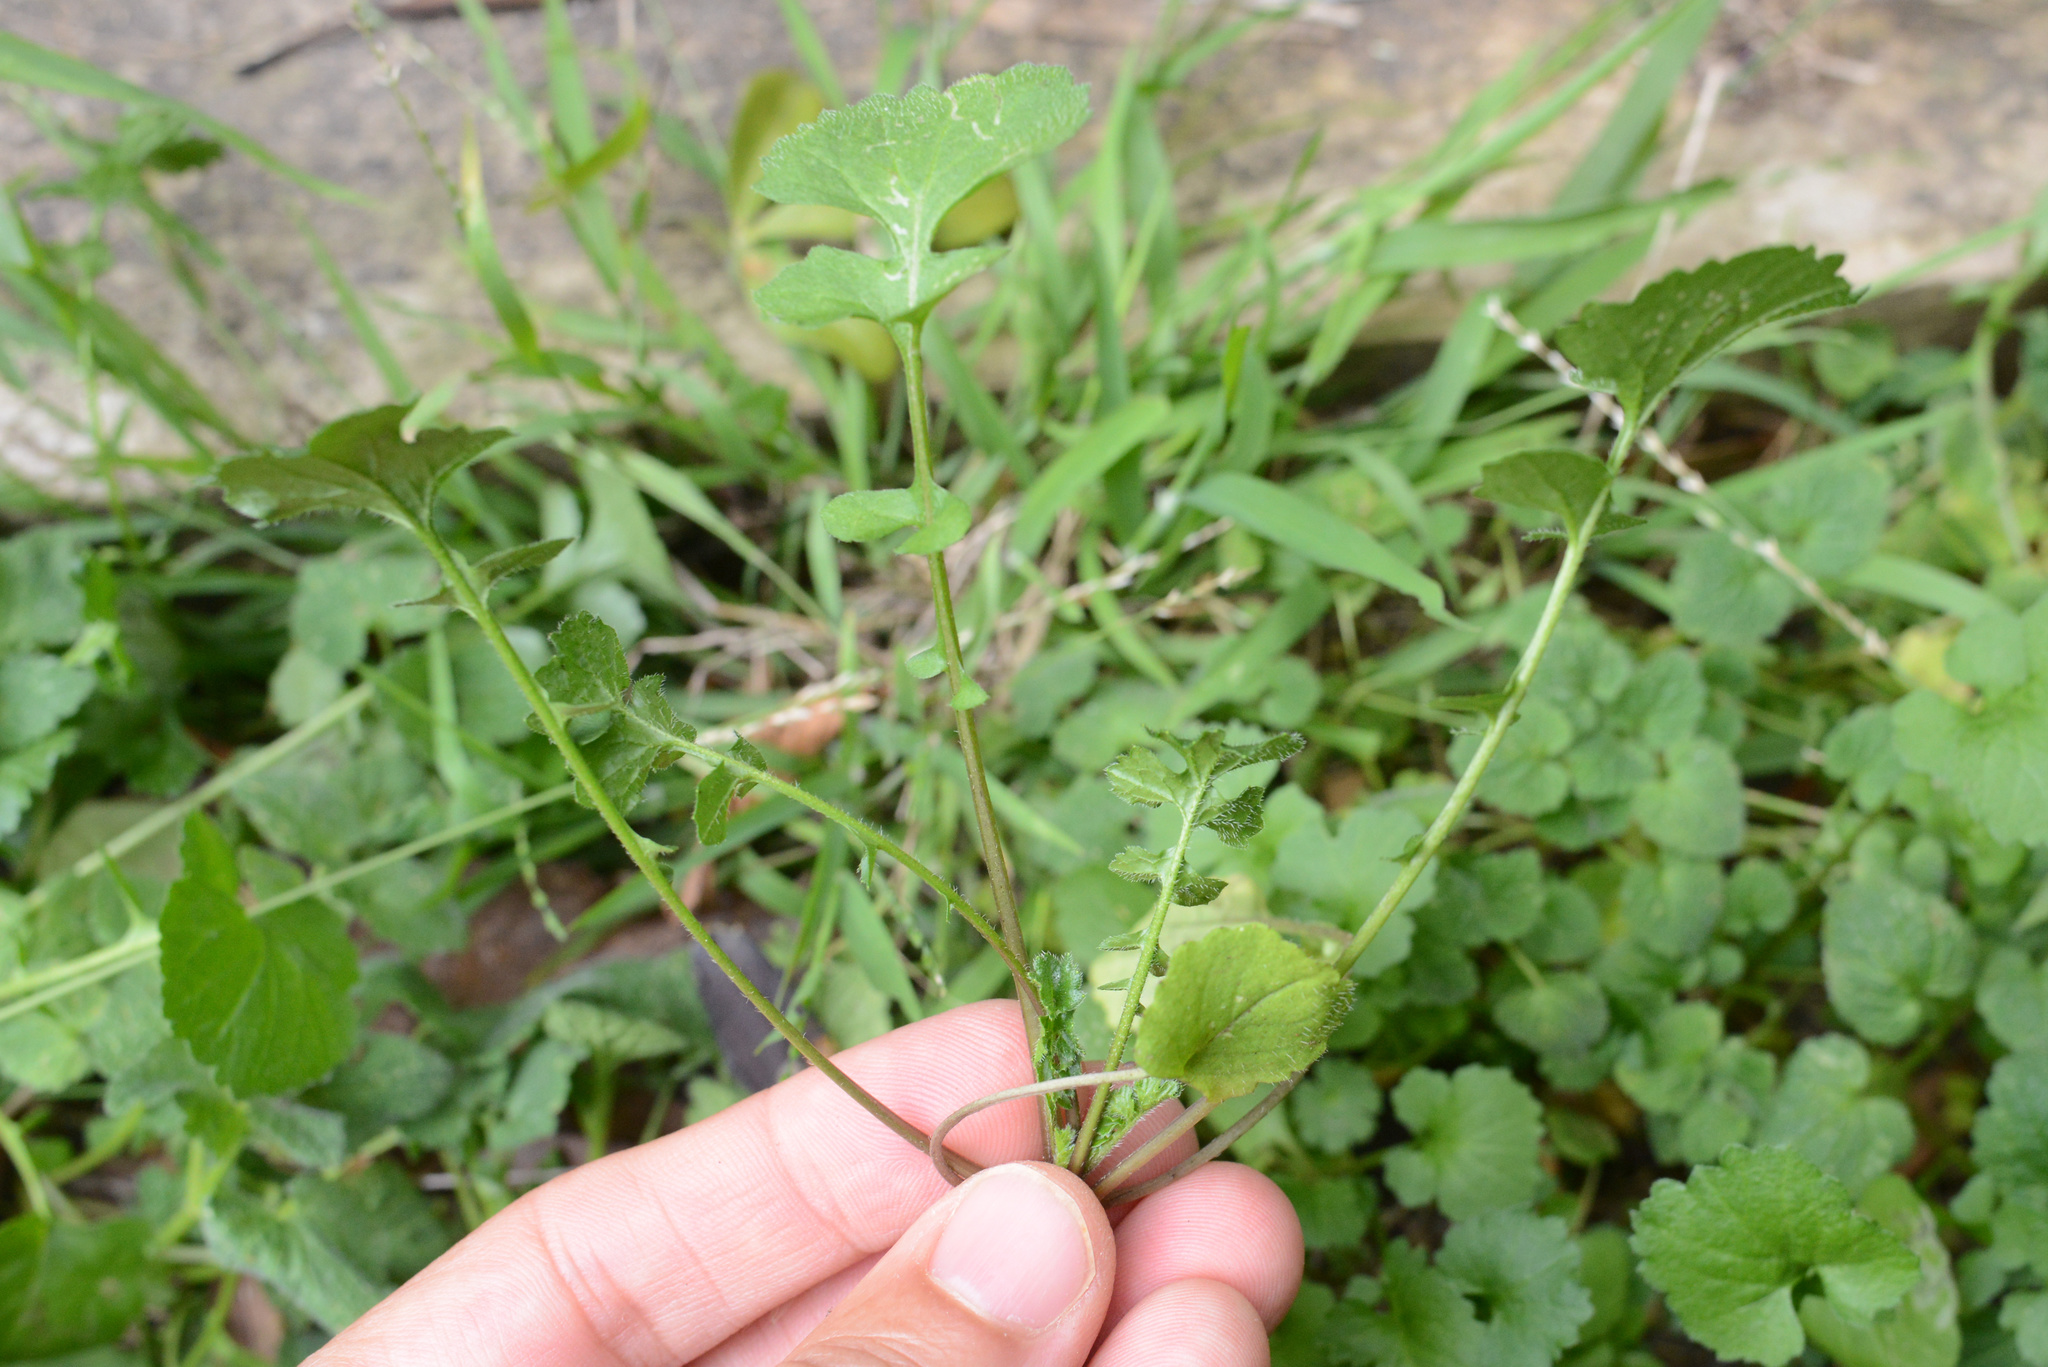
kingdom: Plantae
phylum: Tracheophyta
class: Magnoliopsida
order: Brassicales
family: Brassicaceae
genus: Sisymbrium
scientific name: Sisymbrium officinale
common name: Hedge mustard
